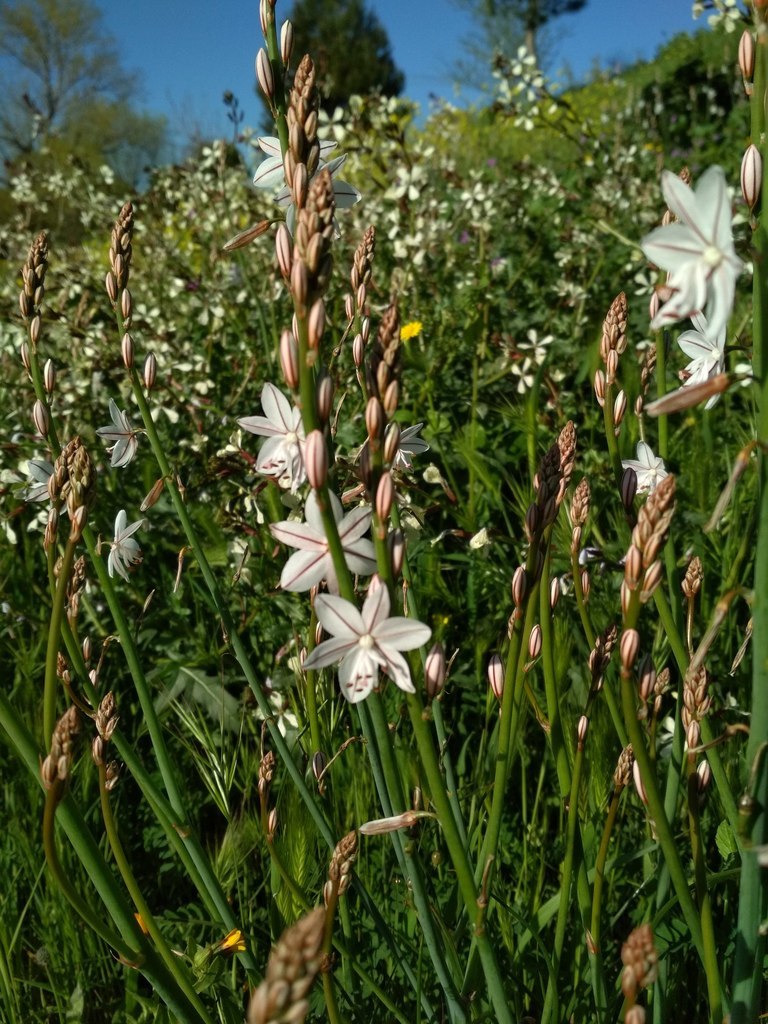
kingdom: Plantae
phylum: Tracheophyta
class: Liliopsida
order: Asparagales
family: Asphodelaceae
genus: Asphodelus
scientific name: Asphodelus fistulosus
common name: Onionweed
